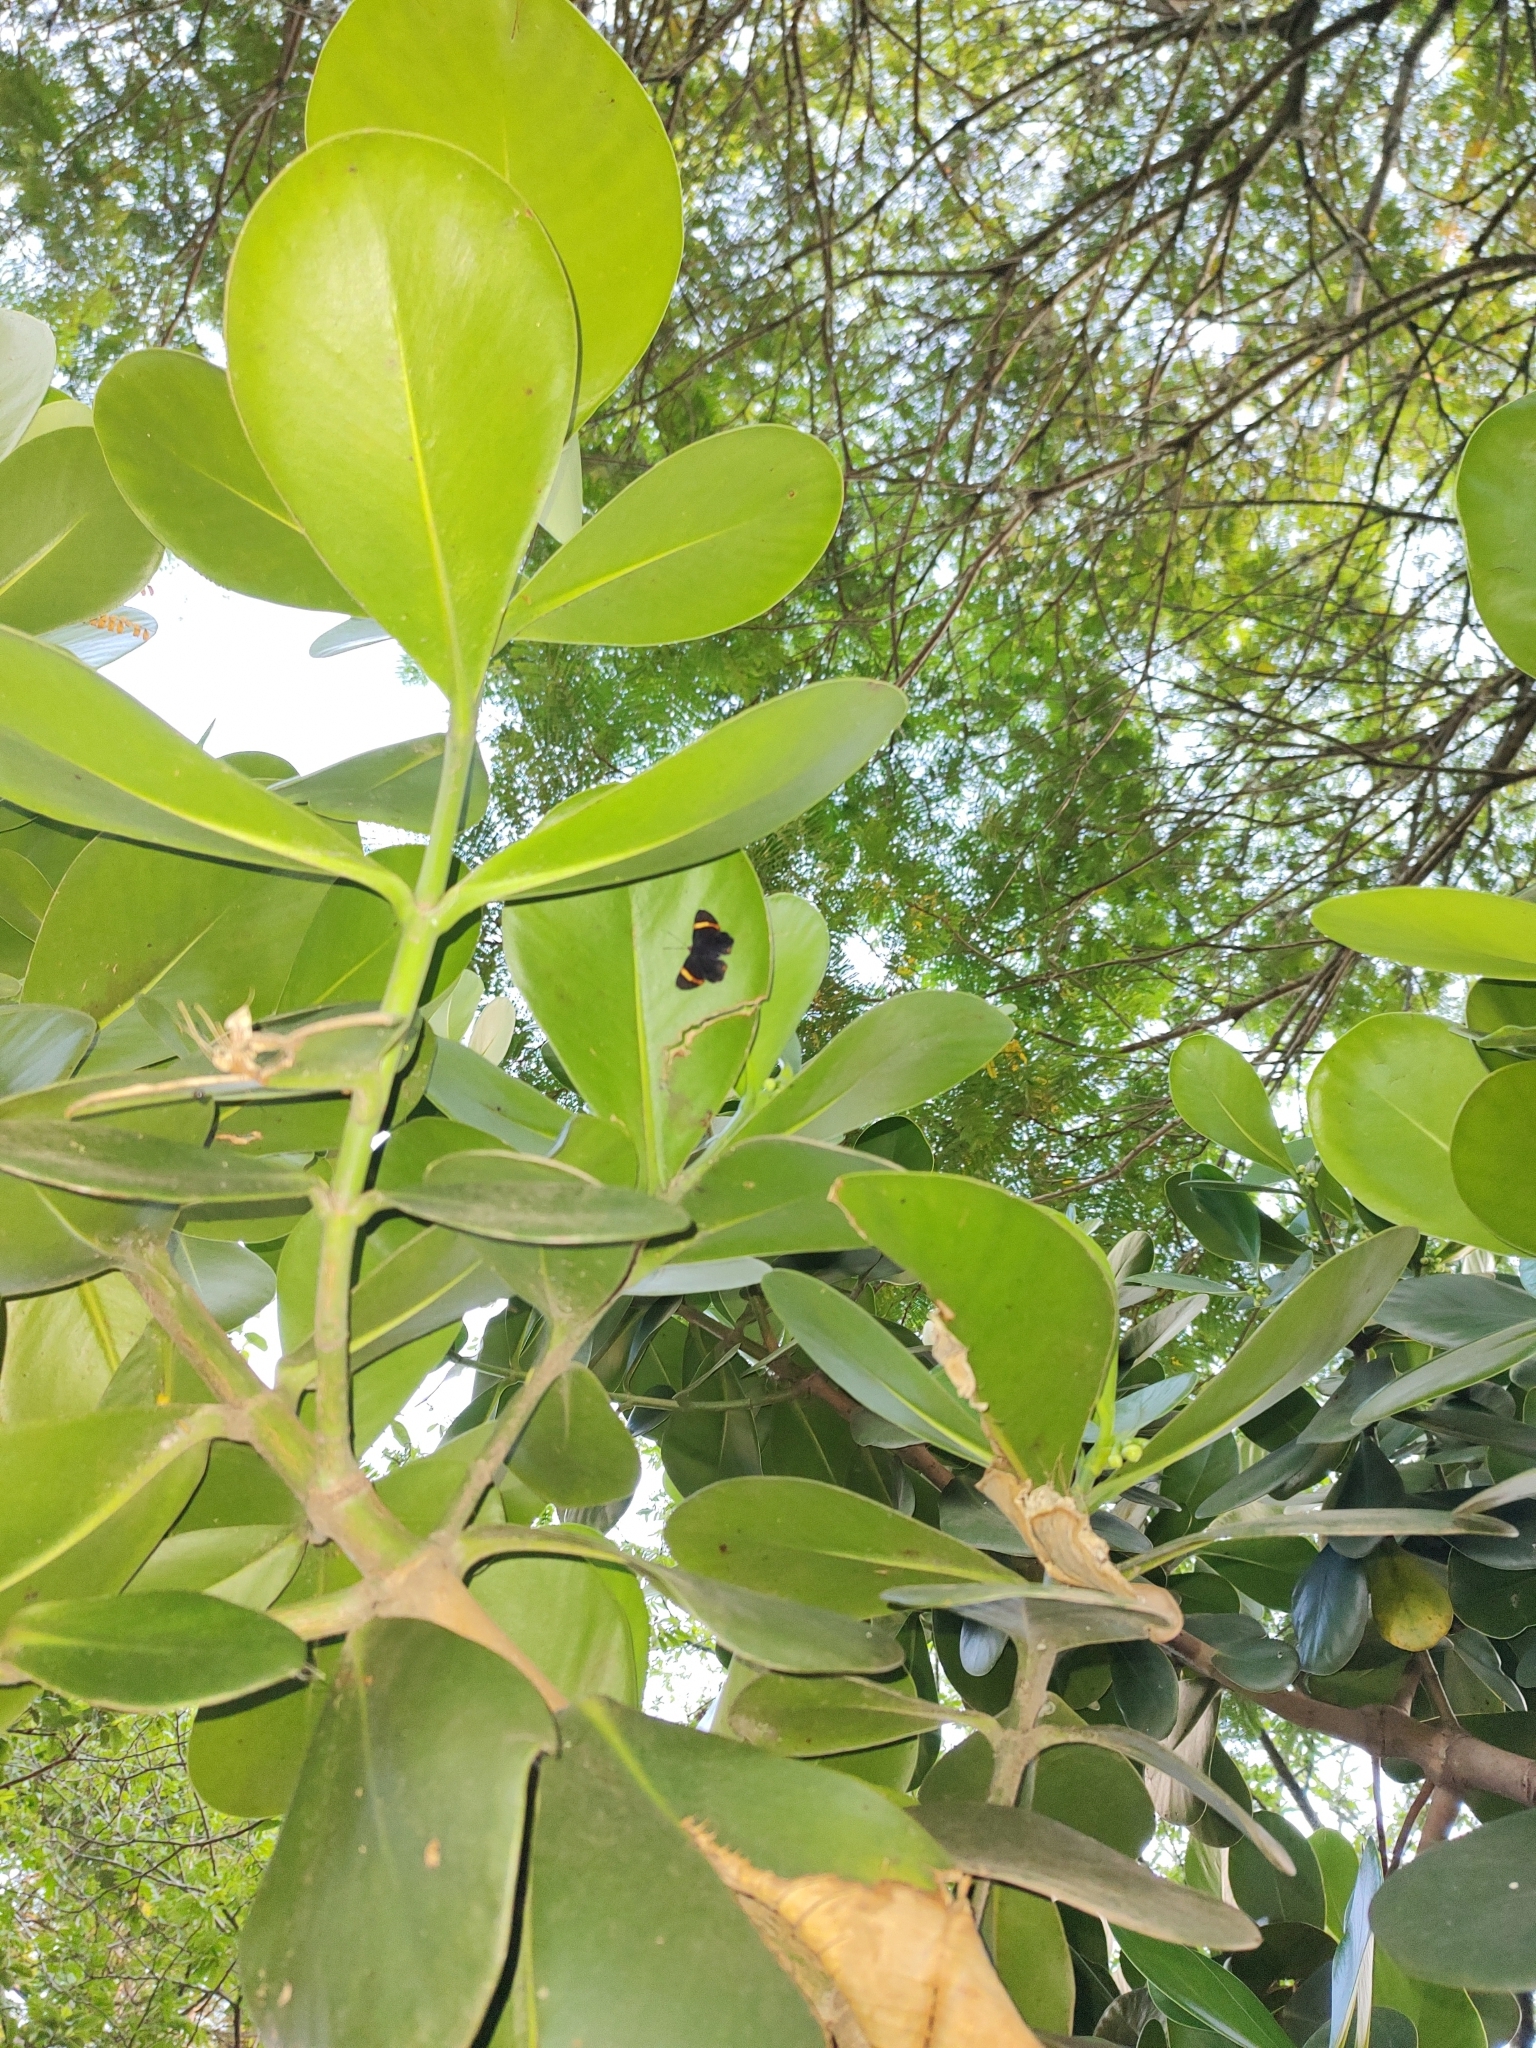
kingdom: Animalia
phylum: Arthropoda
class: Insecta
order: Lepidoptera
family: Riodinidae
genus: Riodina
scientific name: Riodina lycisca
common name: Lycisca metalmark
